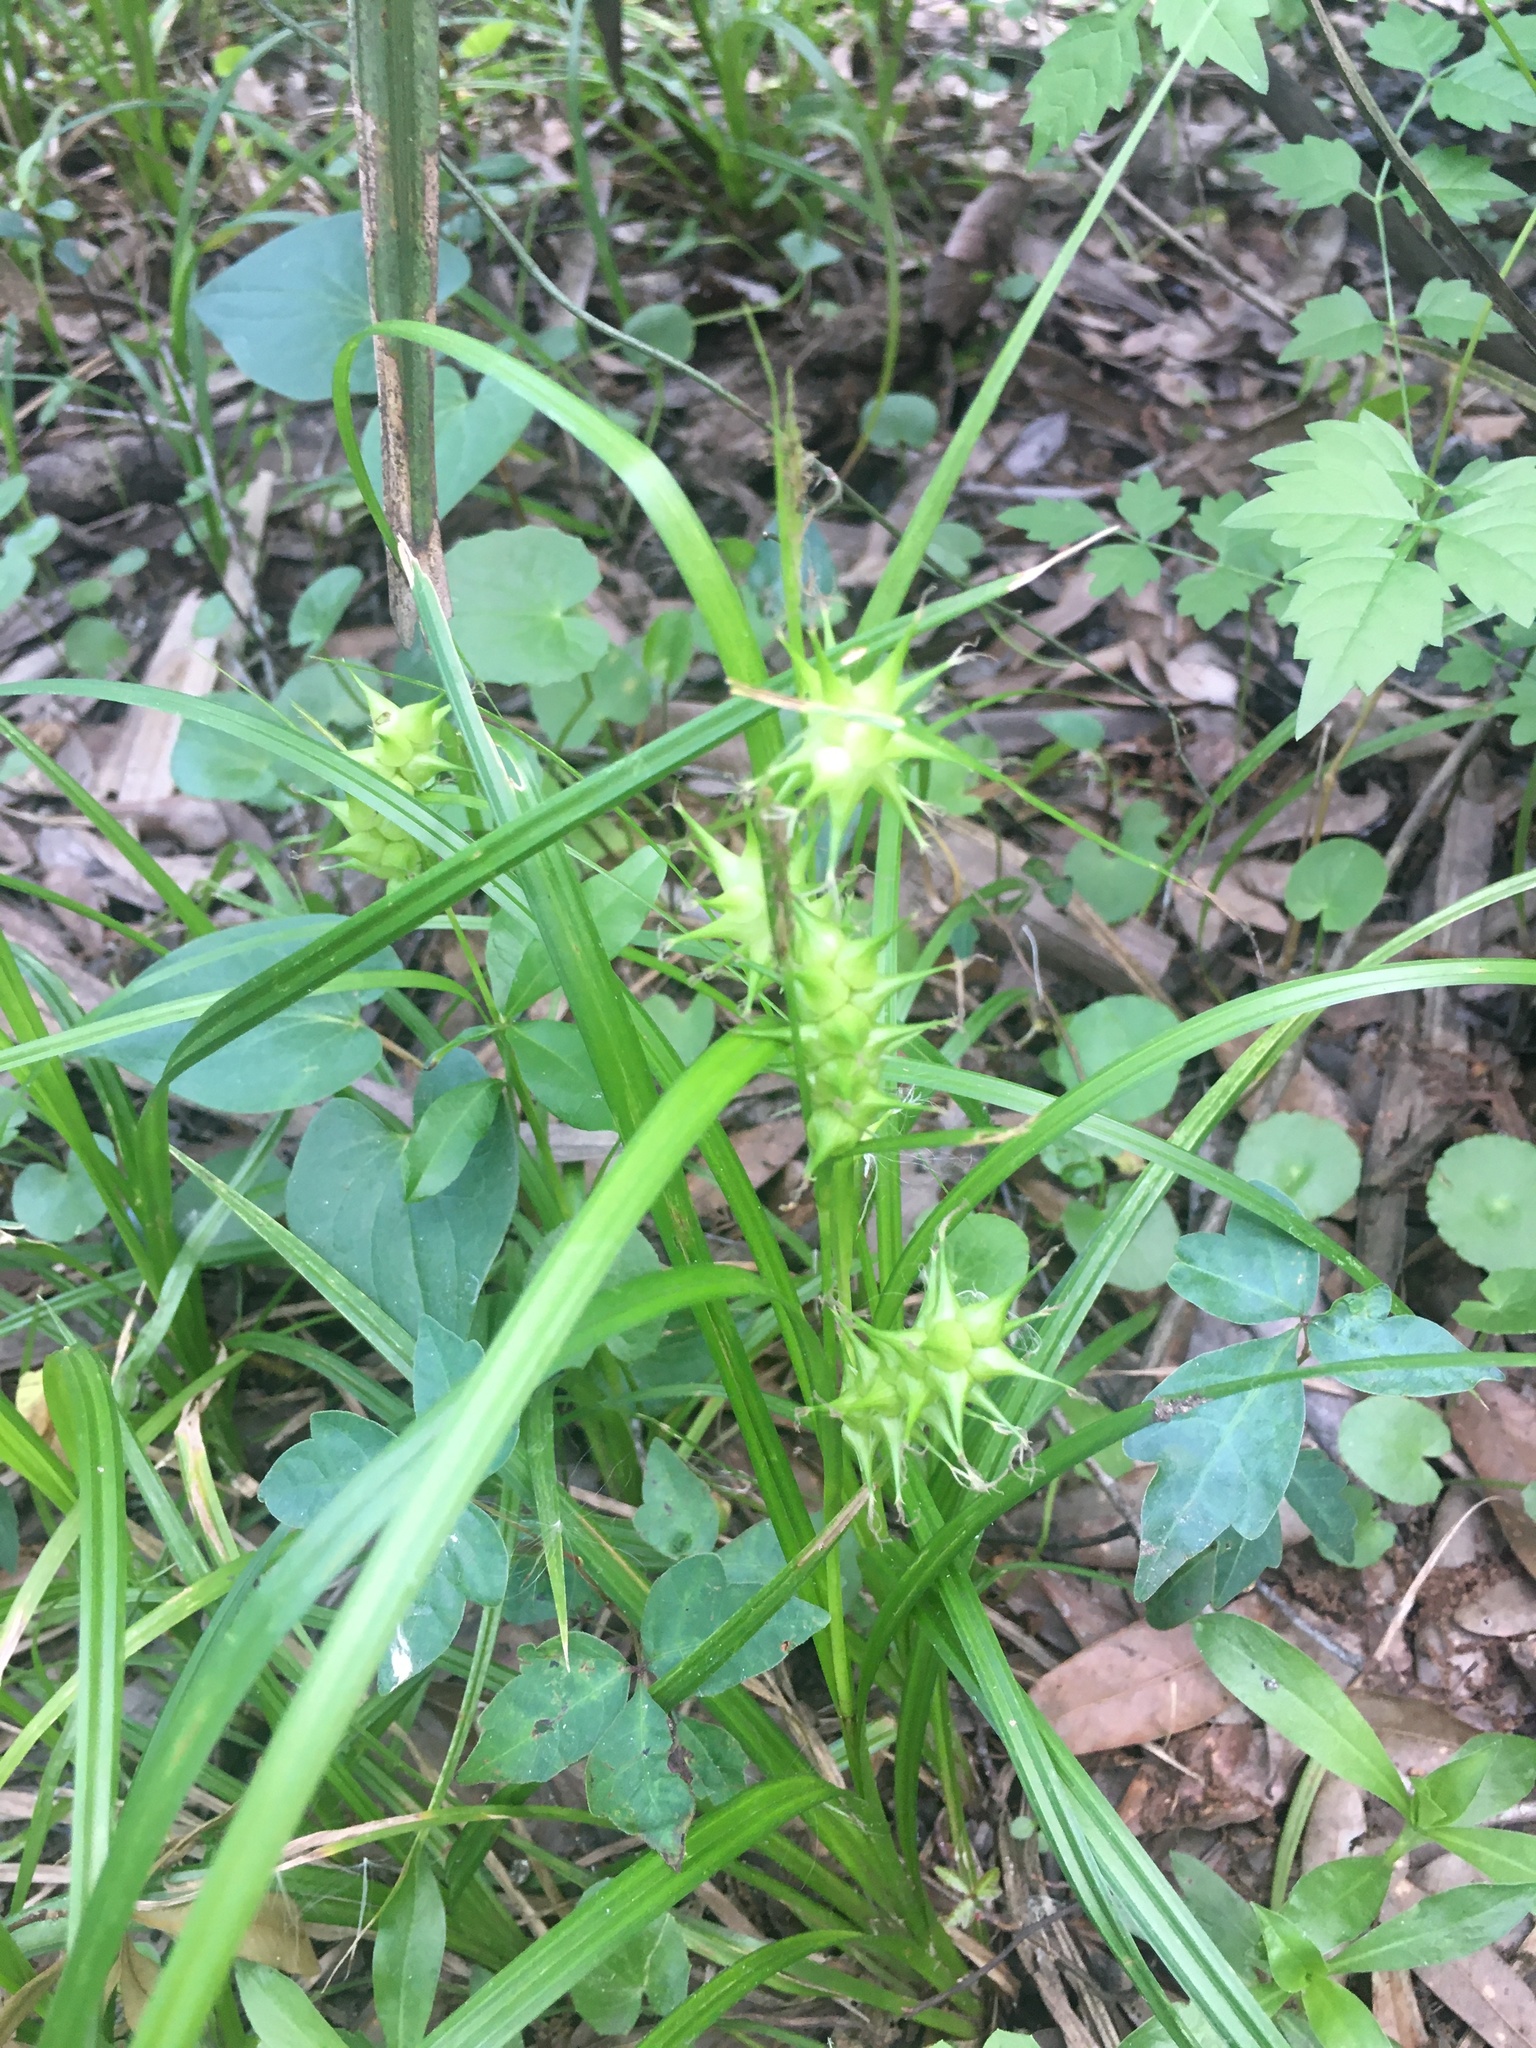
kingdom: Plantae
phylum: Tracheophyta
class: Liliopsida
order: Poales
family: Cyperaceae
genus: Carex
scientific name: Carex gigantea
